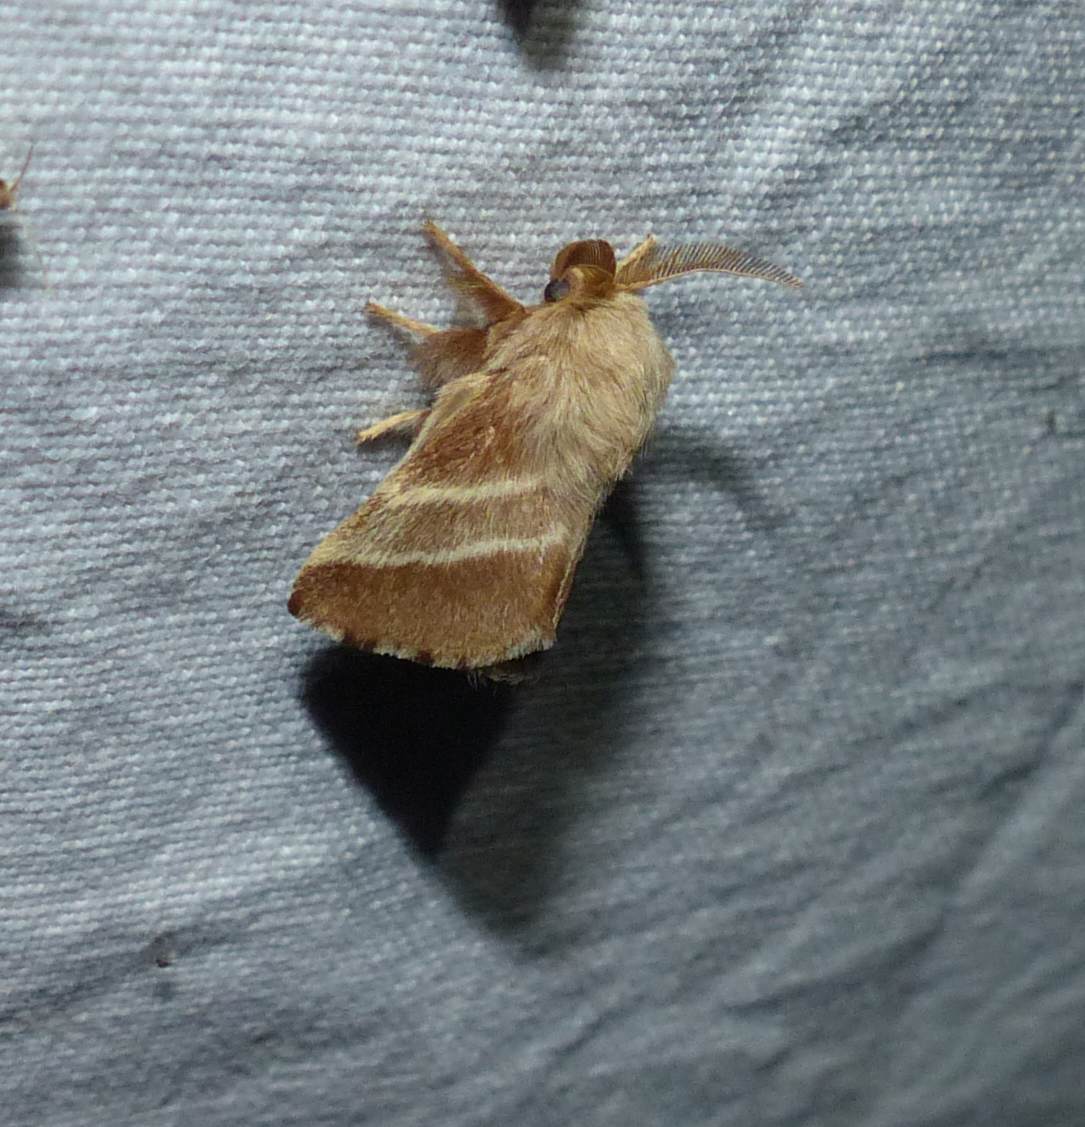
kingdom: Animalia
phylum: Arthropoda
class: Insecta
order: Lepidoptera
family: Lasiocampidae
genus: Malacosoma
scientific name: Malacosoma americana
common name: Eastern tent caterpillar moth
